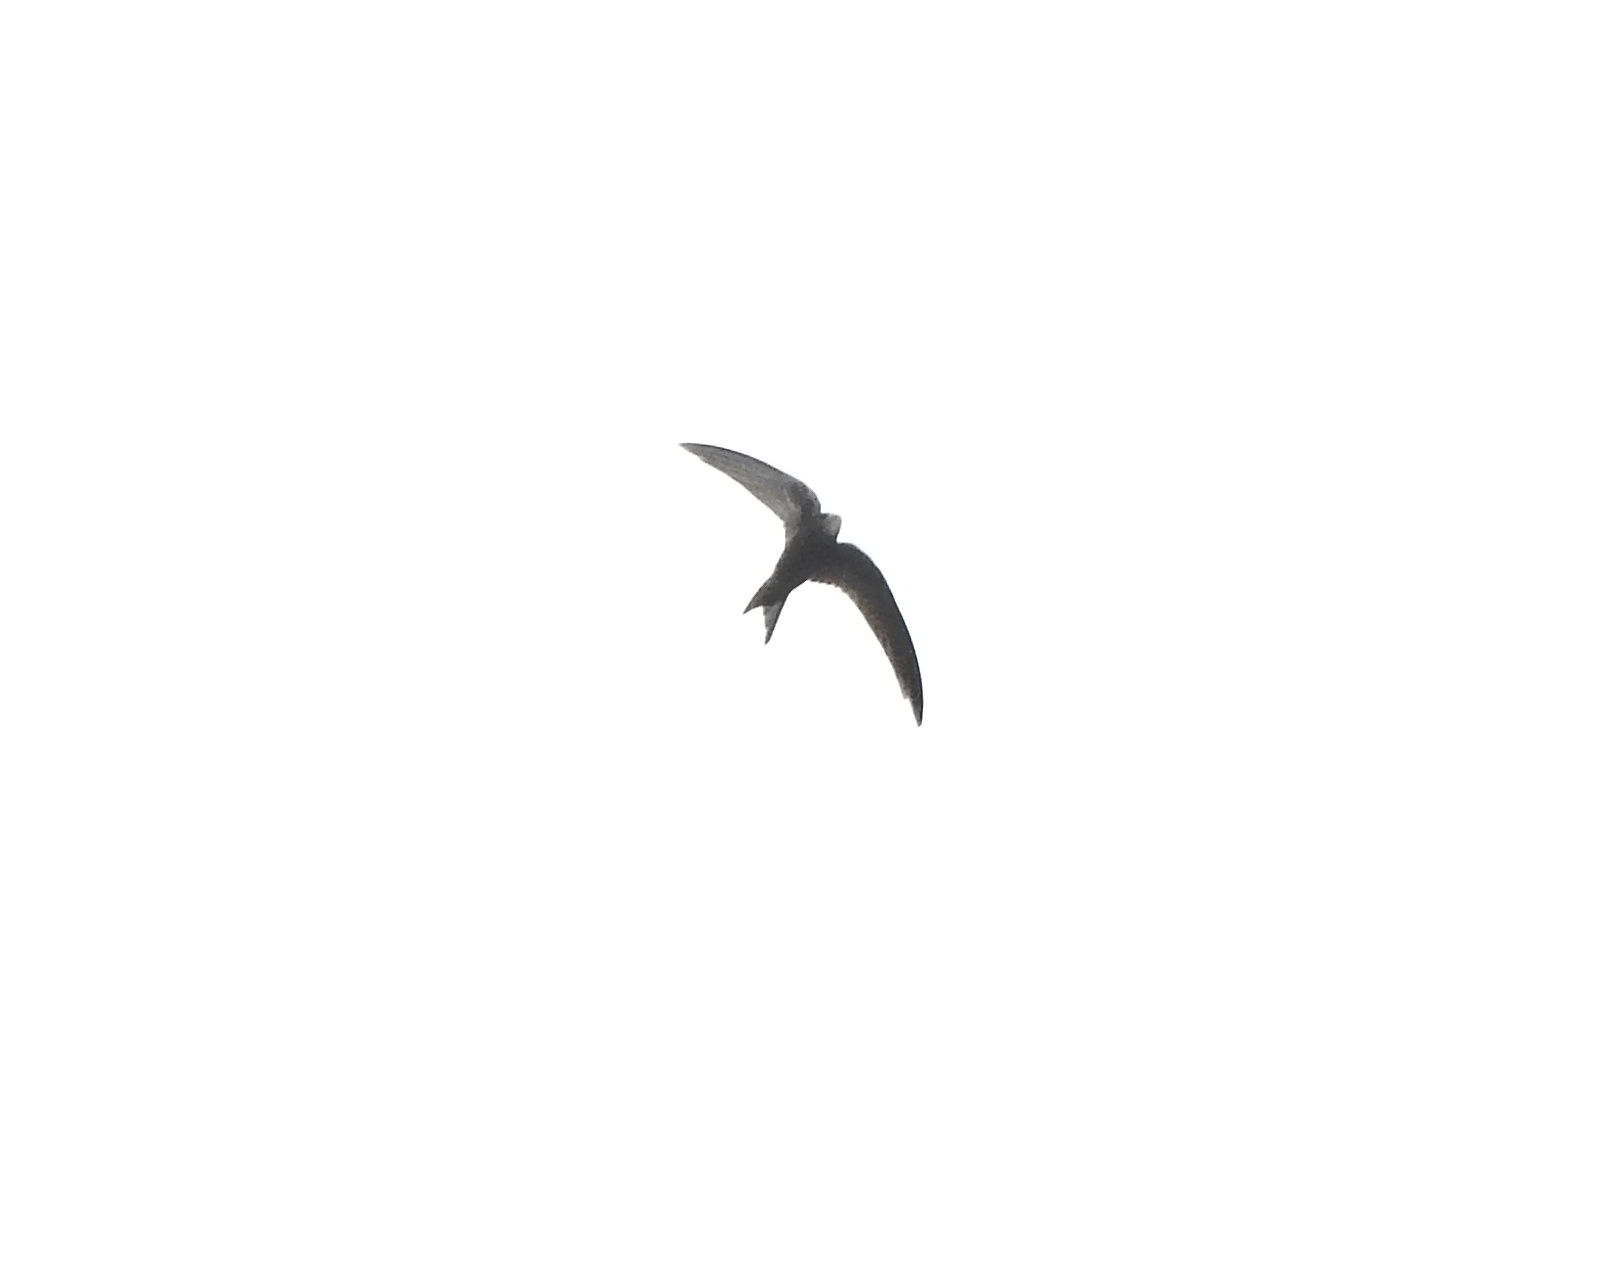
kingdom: Animalia
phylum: Chordata
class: Aves
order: Apodiformes
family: Apodidae
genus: Apus
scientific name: Apus apus
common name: Common swift
